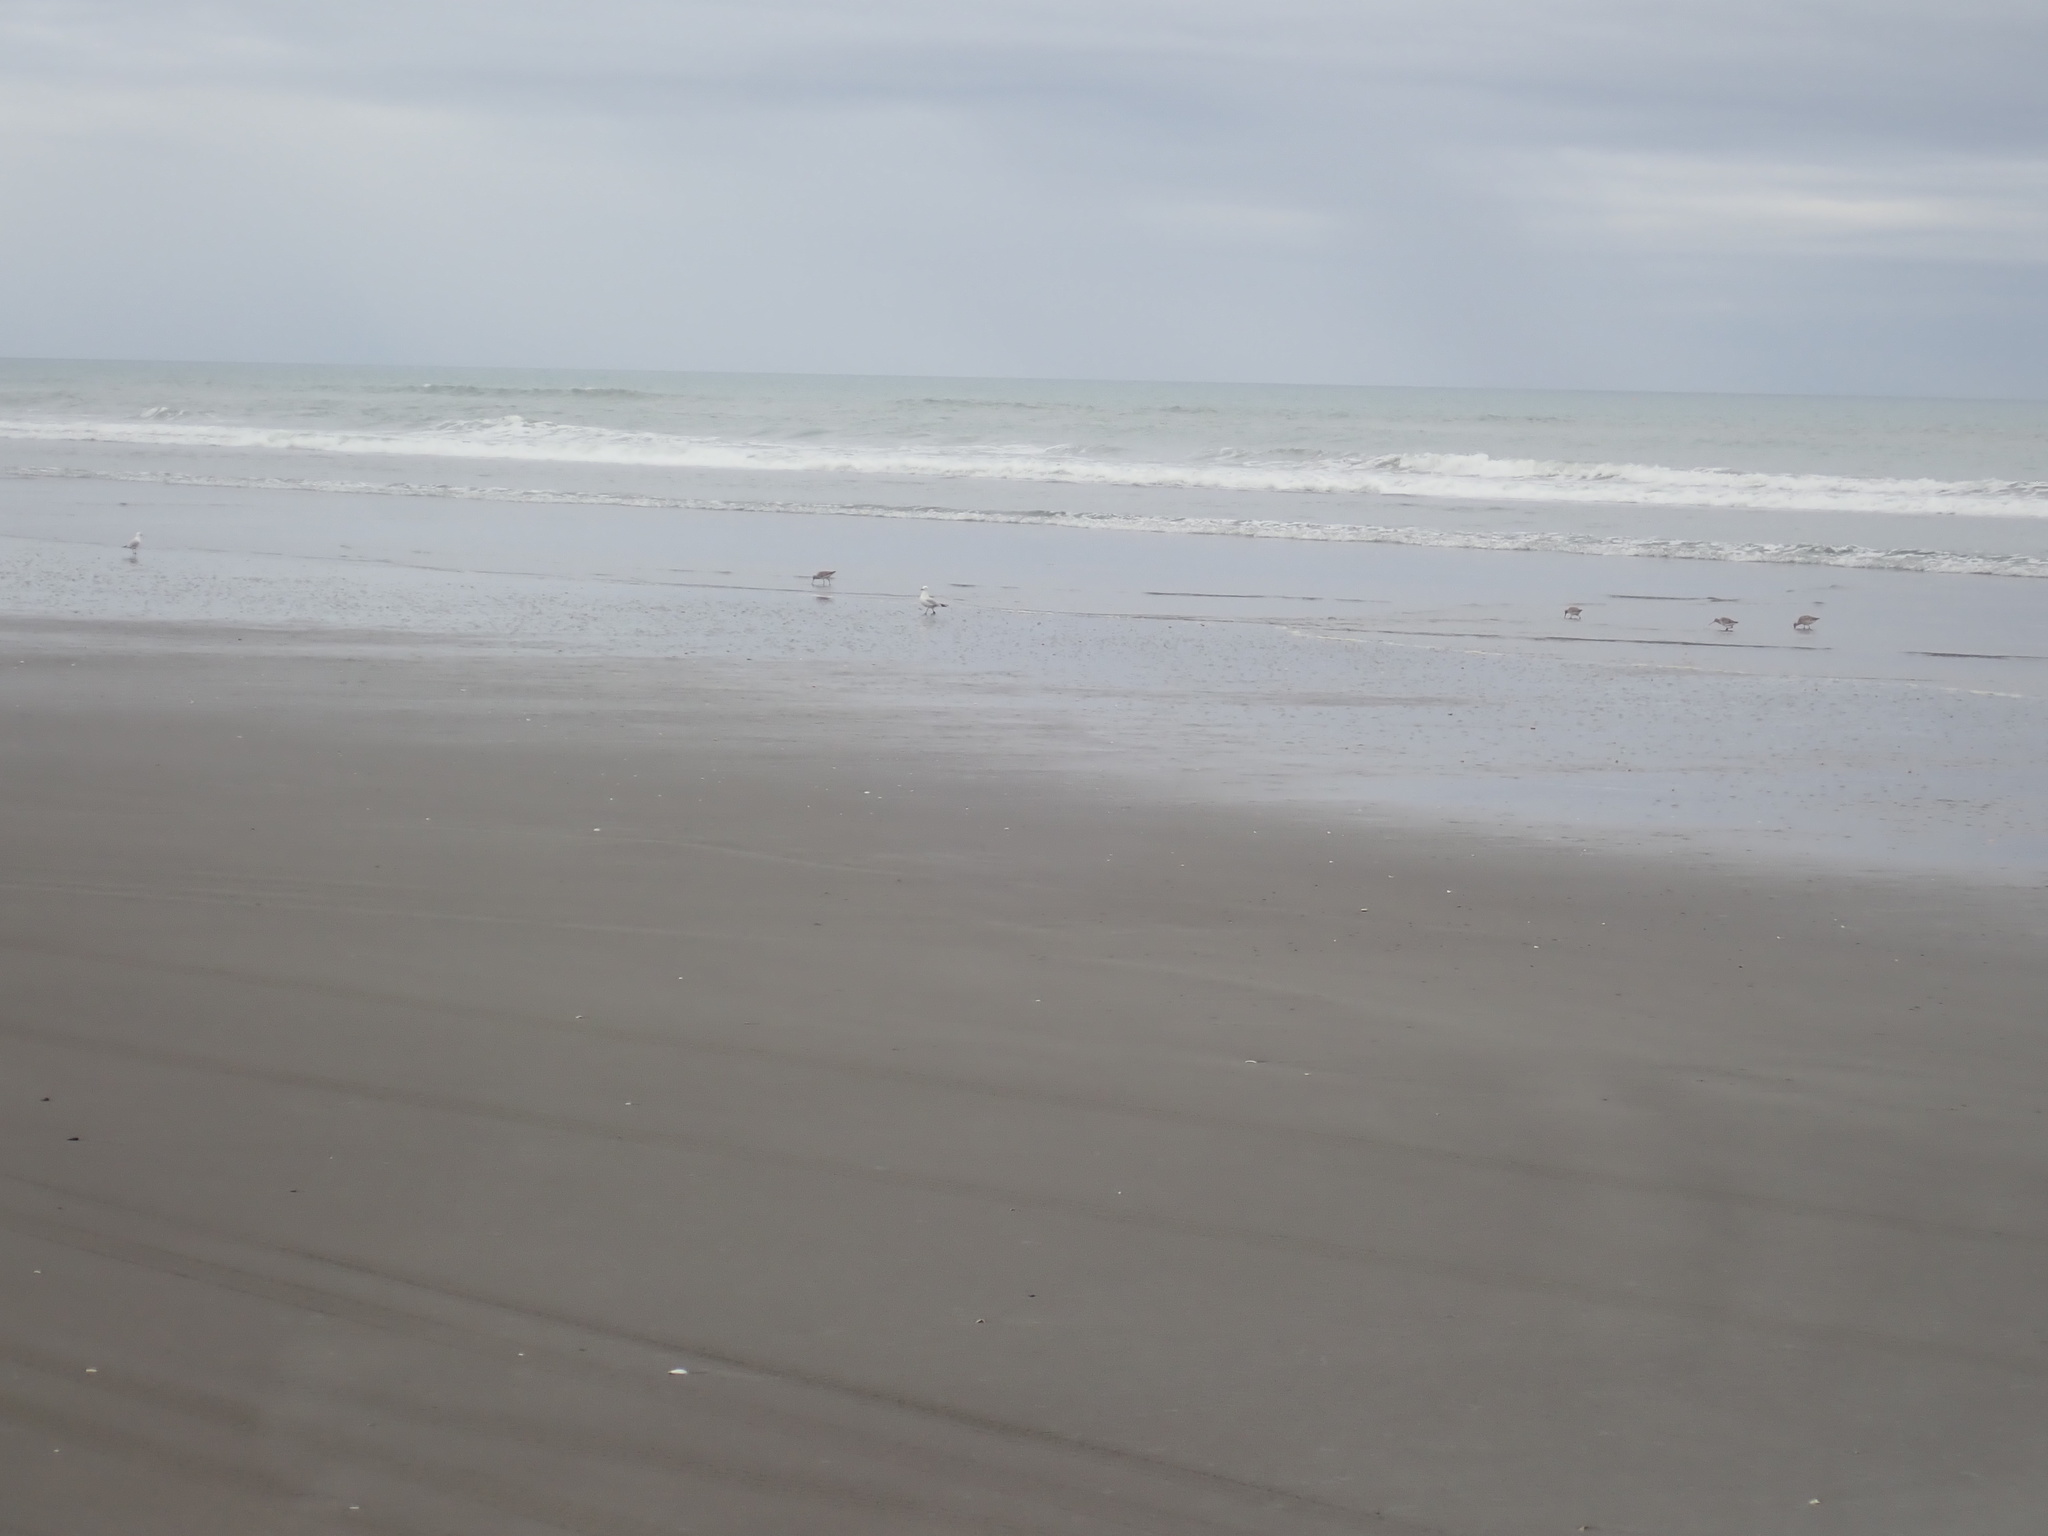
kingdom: Animalia
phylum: Chordata
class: Aves
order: Charadriiformes
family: Scolopacidae
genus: Limosa
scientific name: Limosa lapponica
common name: Bar-tailed godwit
